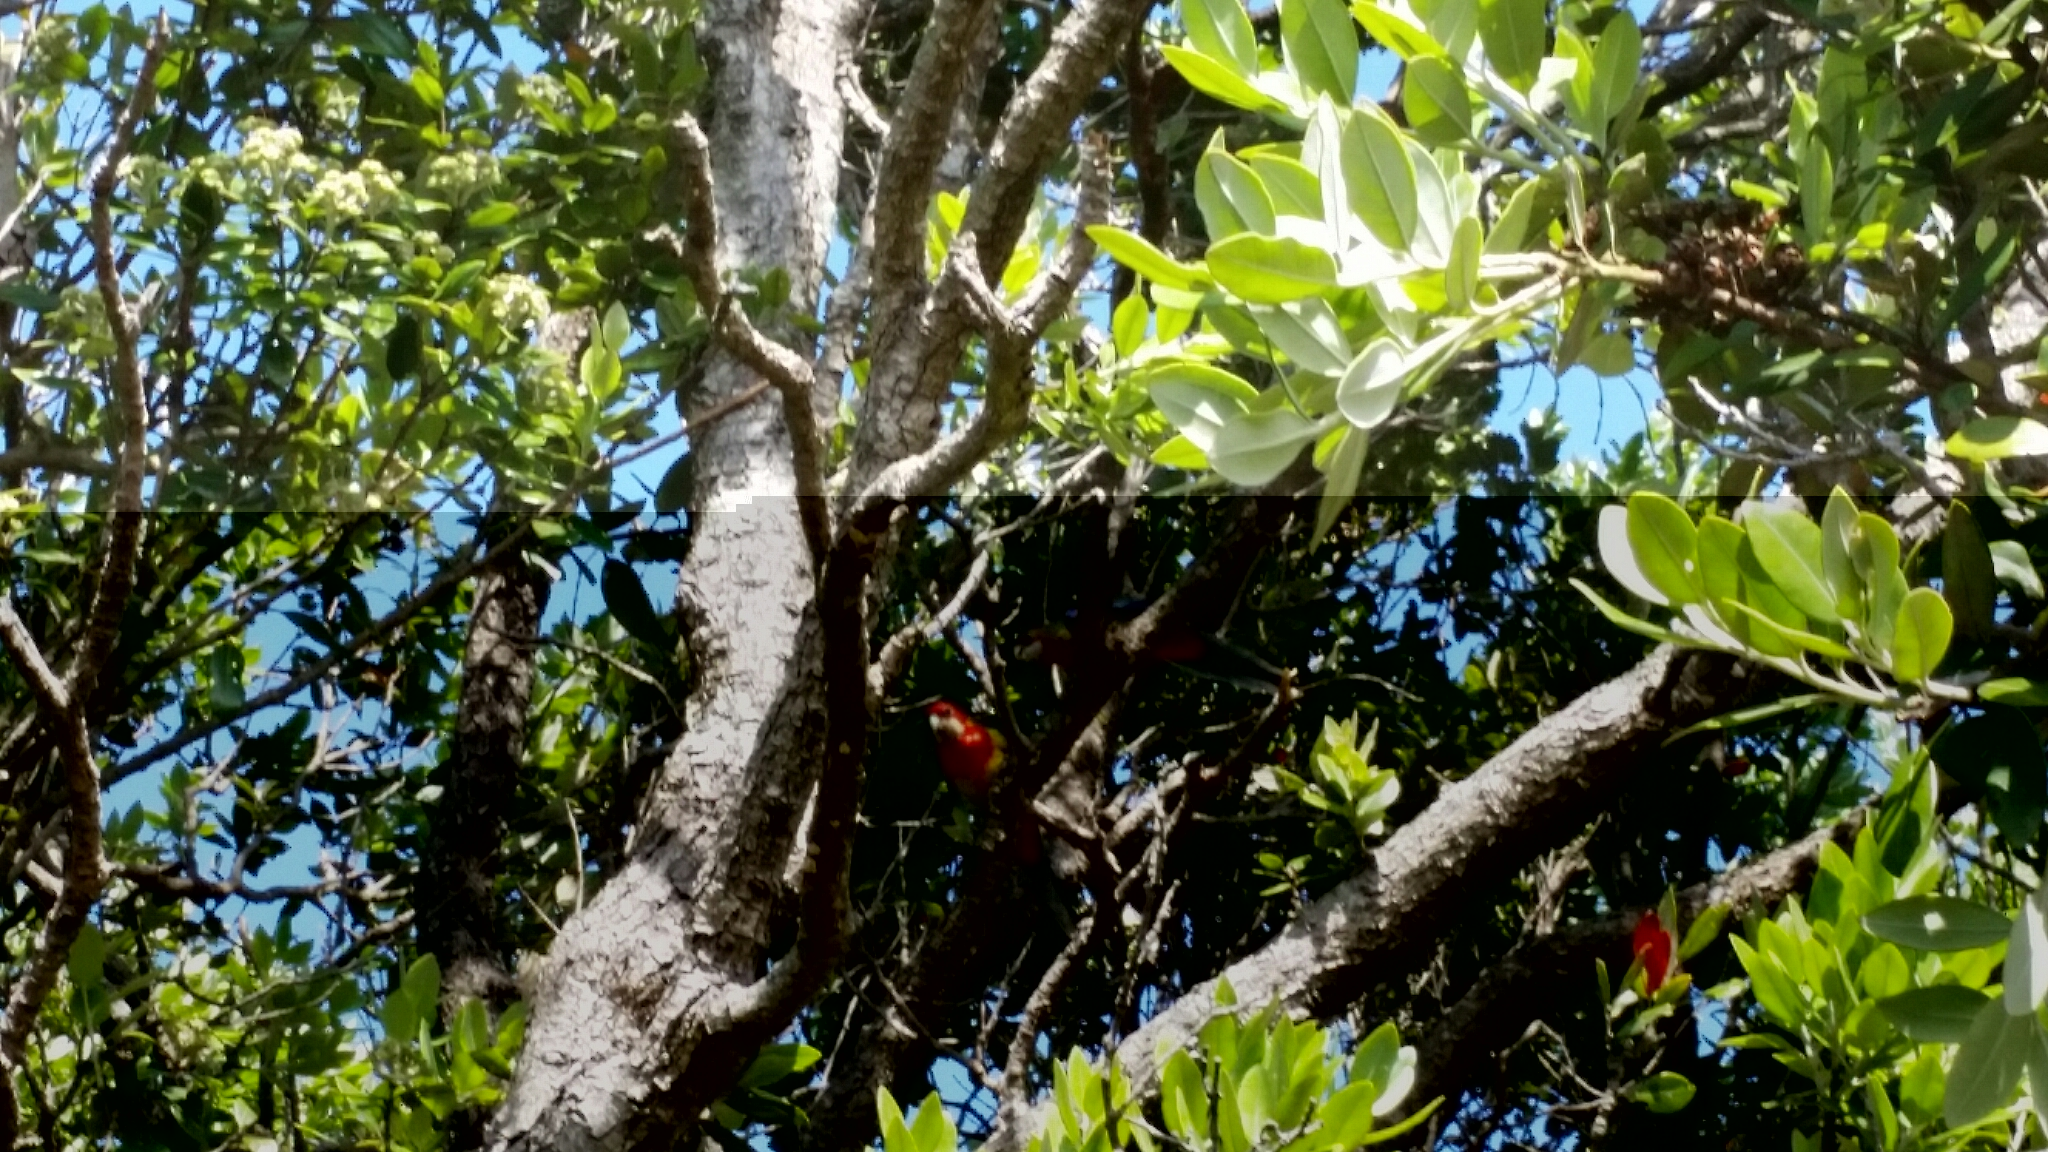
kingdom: Animalia
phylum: Chordata
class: Aves
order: Psittaciformes
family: Psittacidae
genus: Platycercus
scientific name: Platycercus eximius
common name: Eastern rosella
